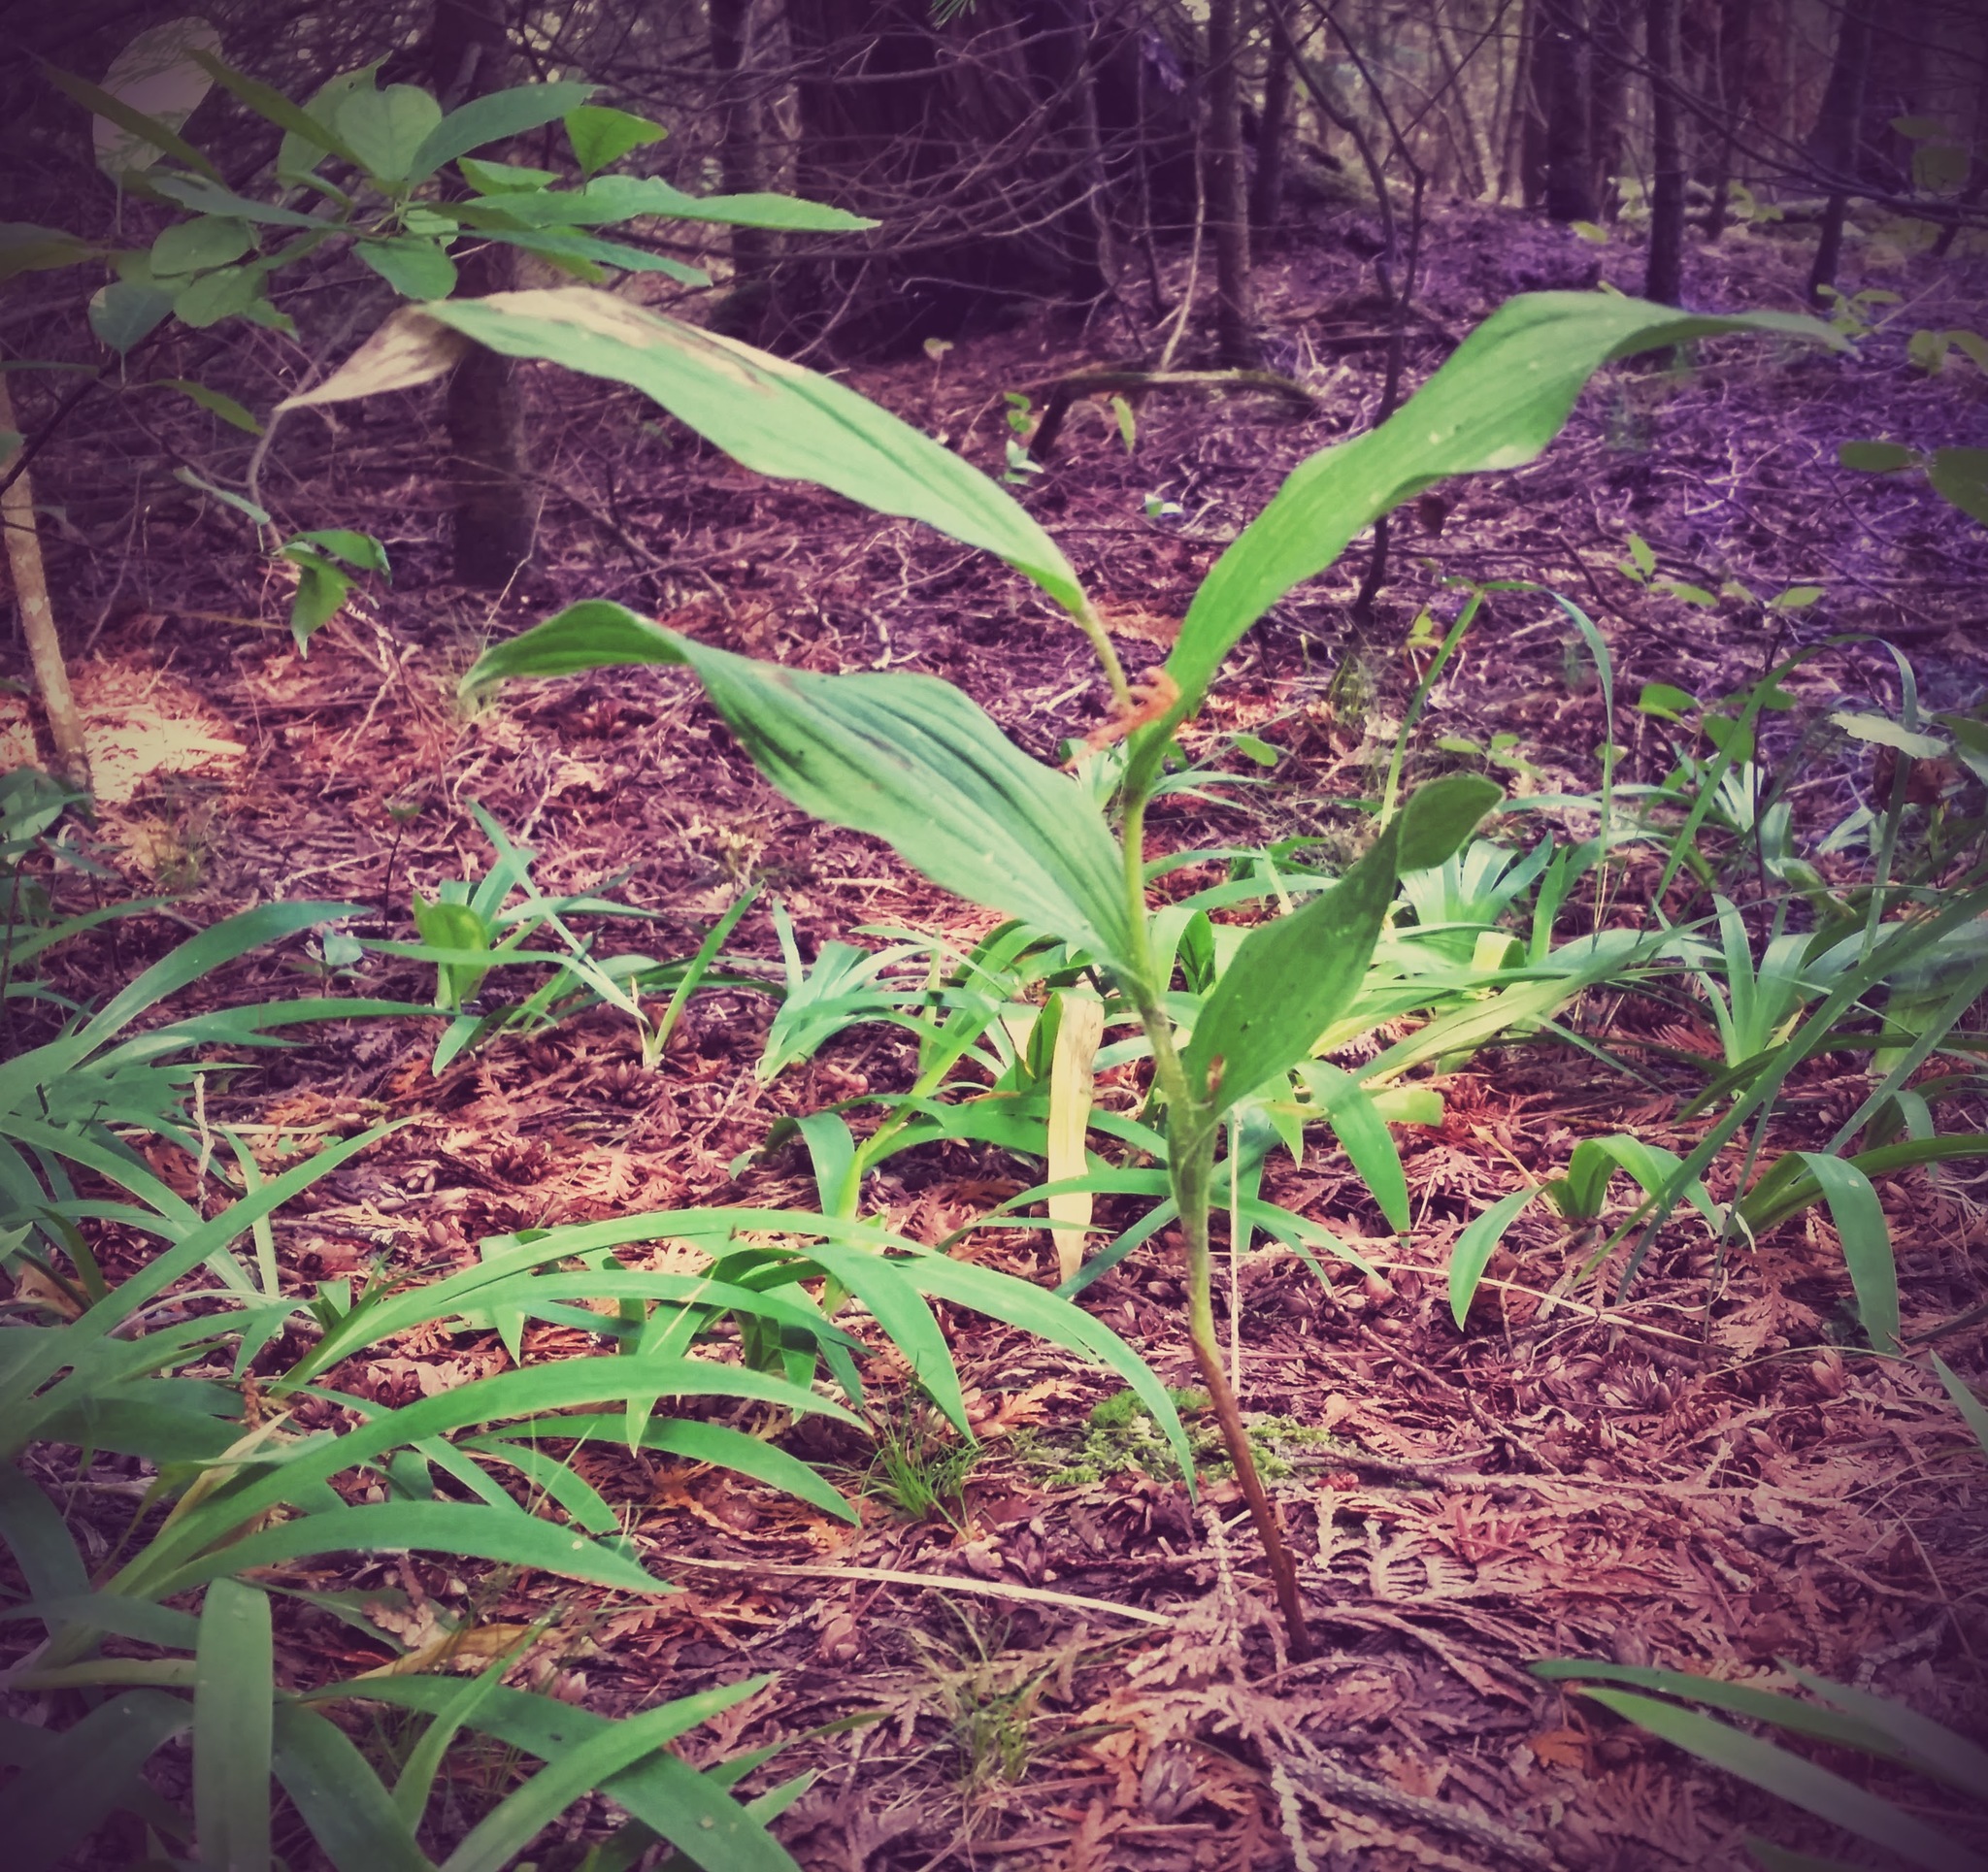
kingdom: Plantae
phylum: Tracheophyta
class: Liliopsida
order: Asparagales
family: Orchidaceae
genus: Cypripedium
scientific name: Cypripedium parviflorum
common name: American yellow lady's-slipper
